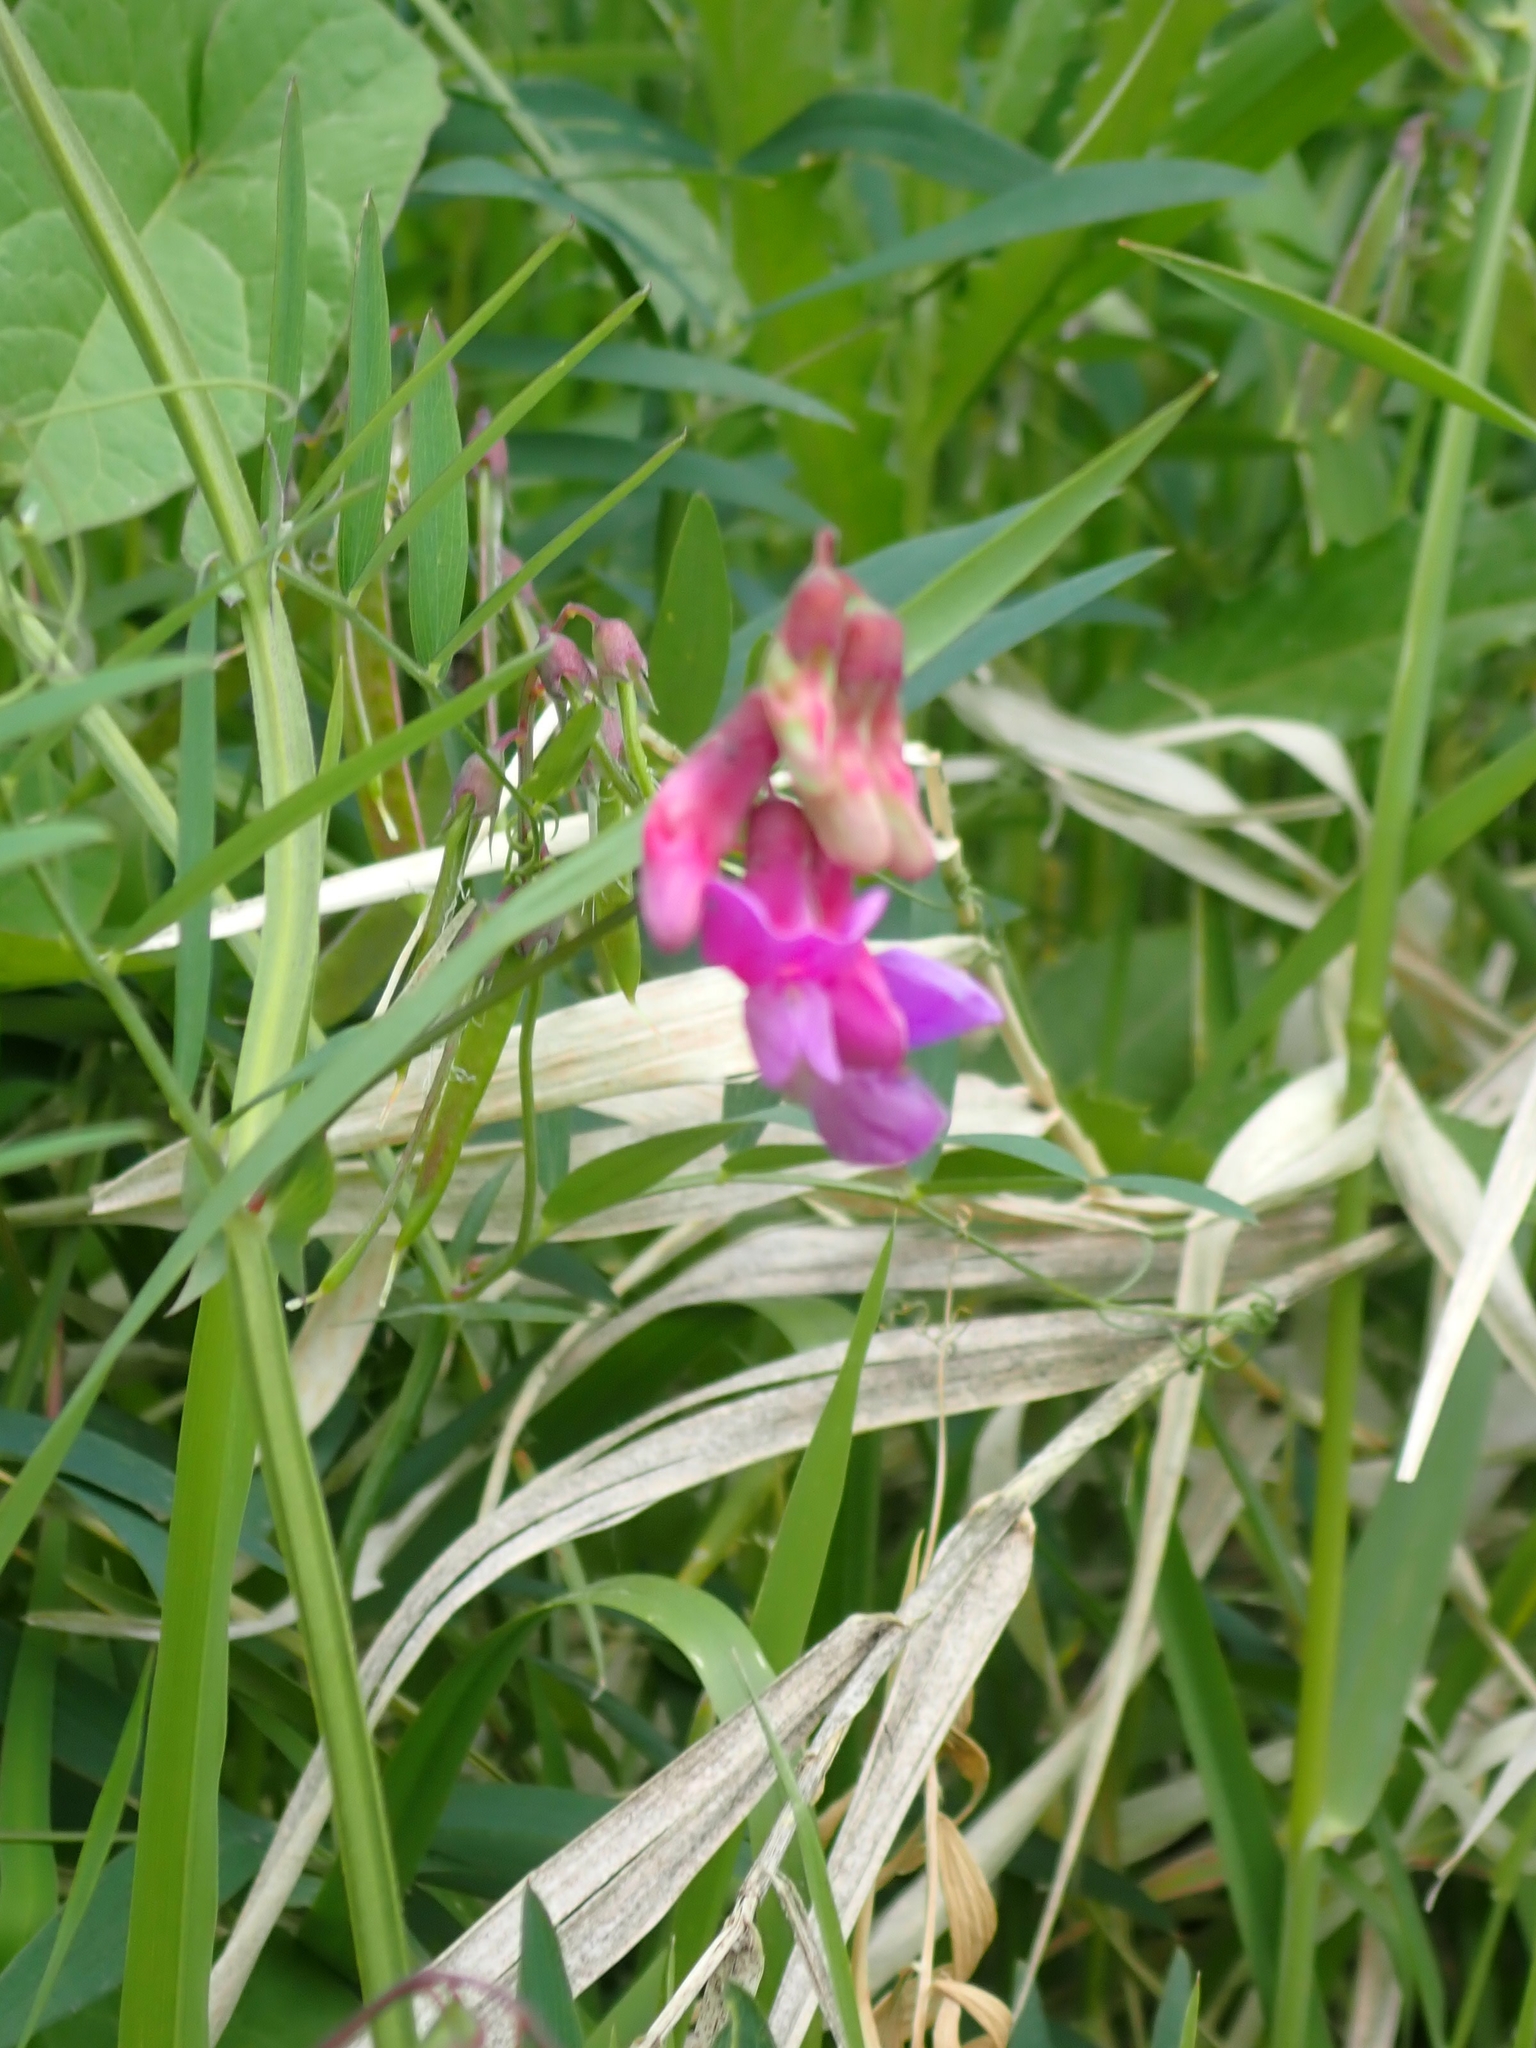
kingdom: Plantae
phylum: Tracheophyta
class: Magnoliopsida
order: Fabales
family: Fabaceae
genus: Lathyrus
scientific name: Lathyrus palustris
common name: Marsh pea
